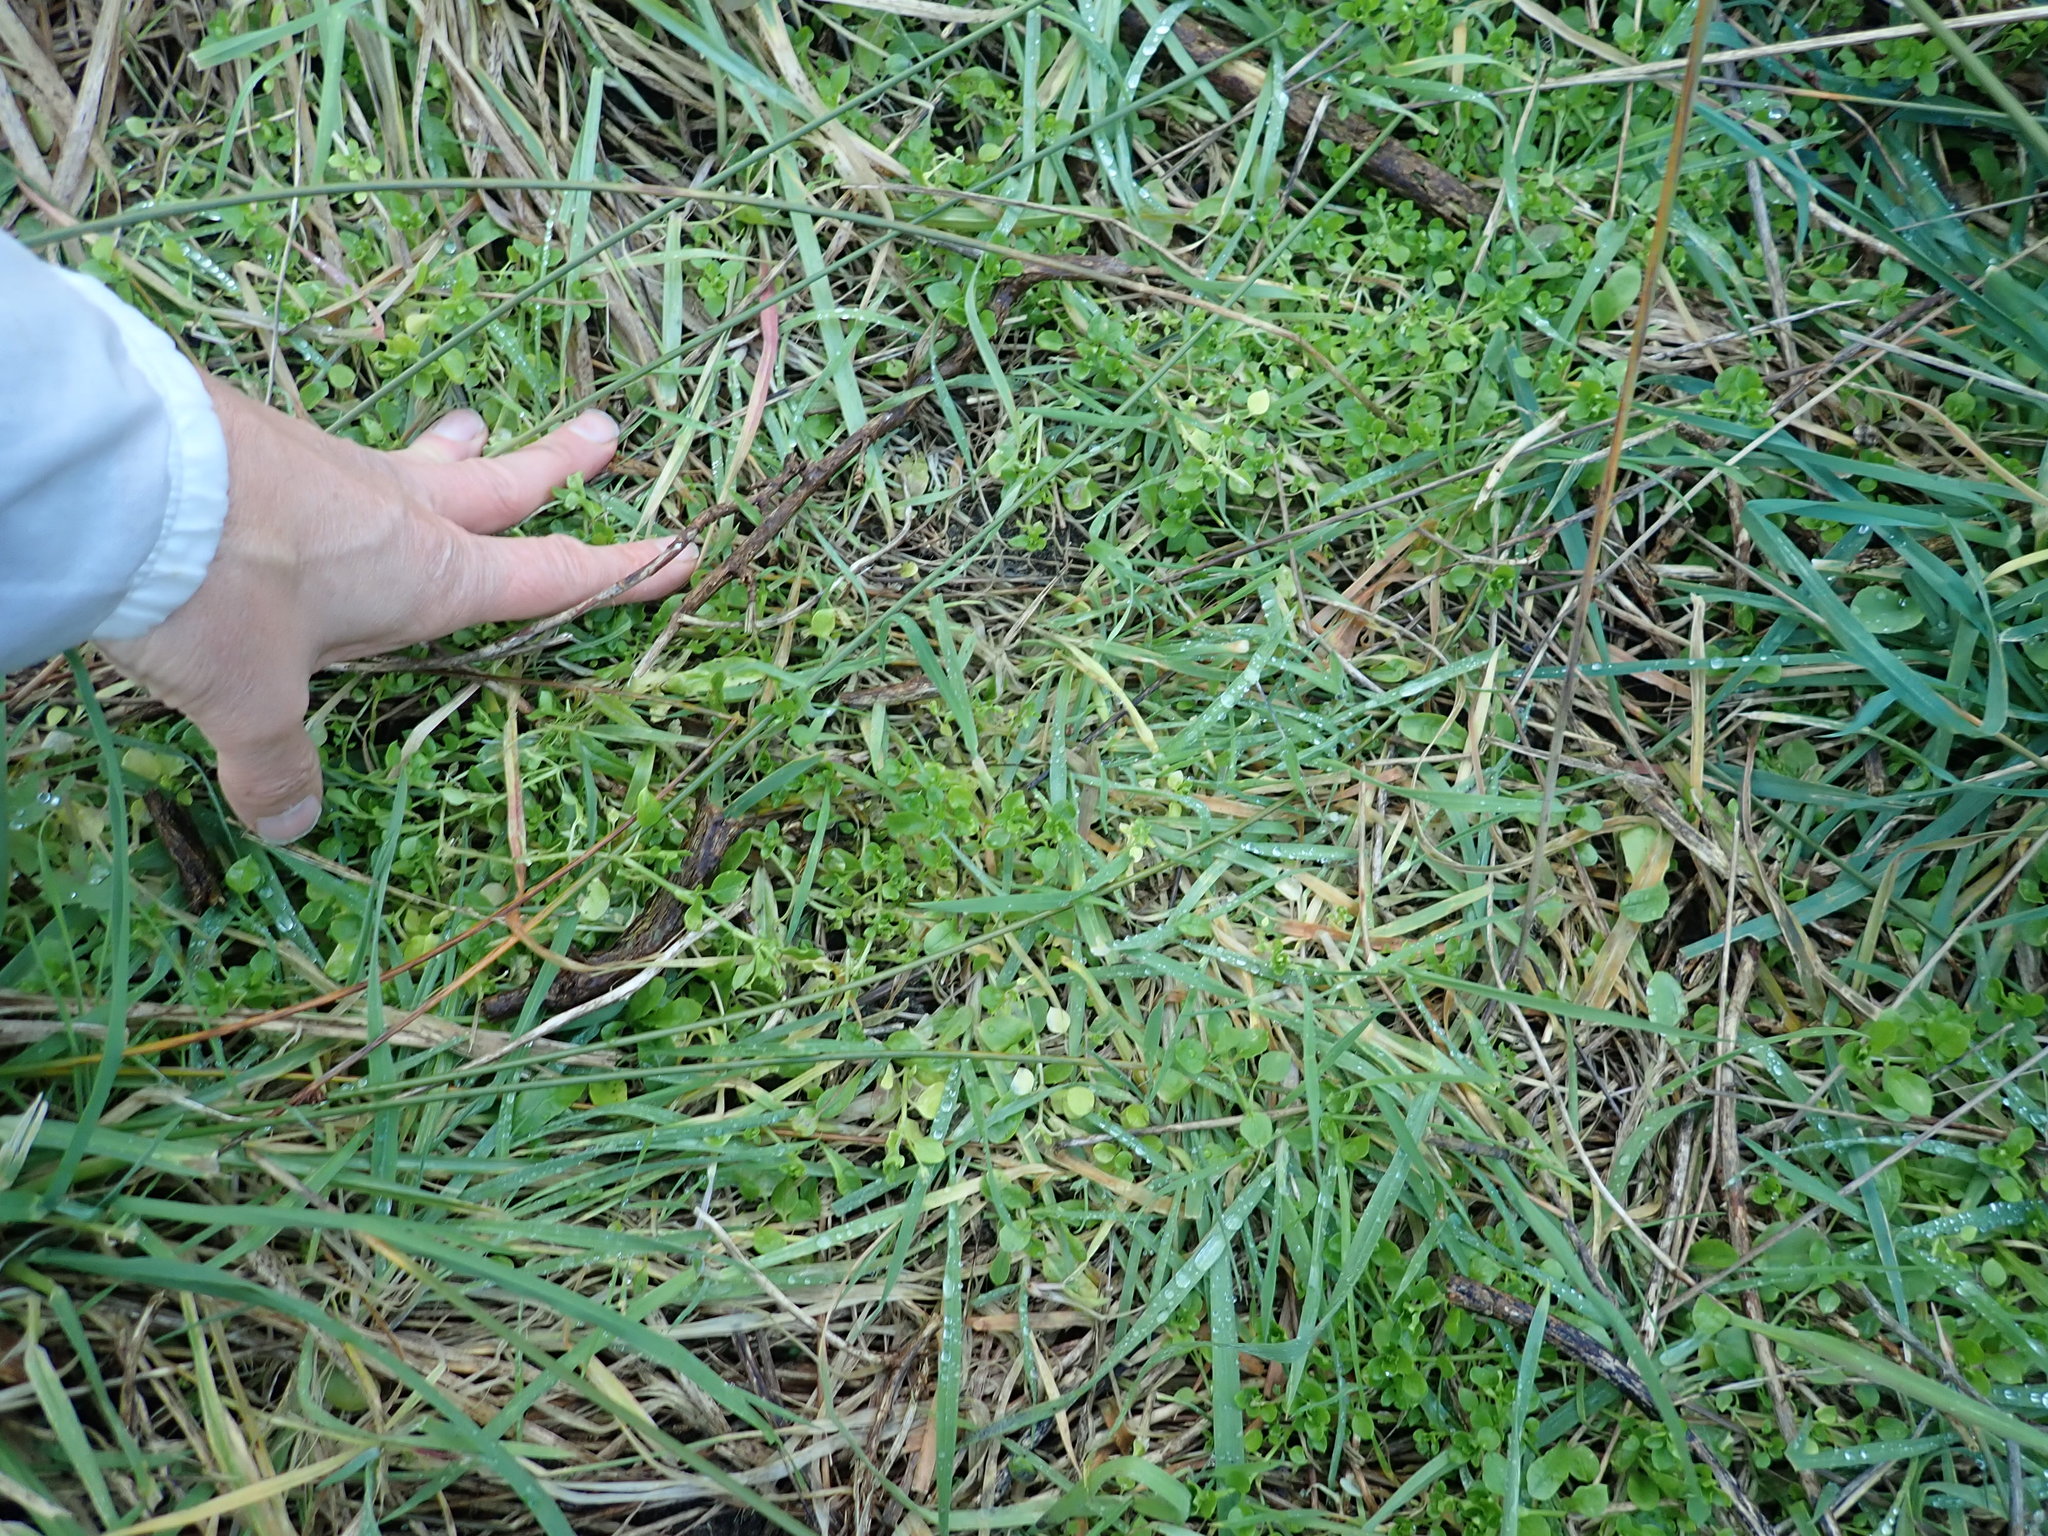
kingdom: Plantae
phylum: Tracheophyta
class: Magnoliopsida
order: Caryophyllales
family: Caryophyllaceae
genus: Stellaria
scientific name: Stellaria media
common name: Common chickweed
